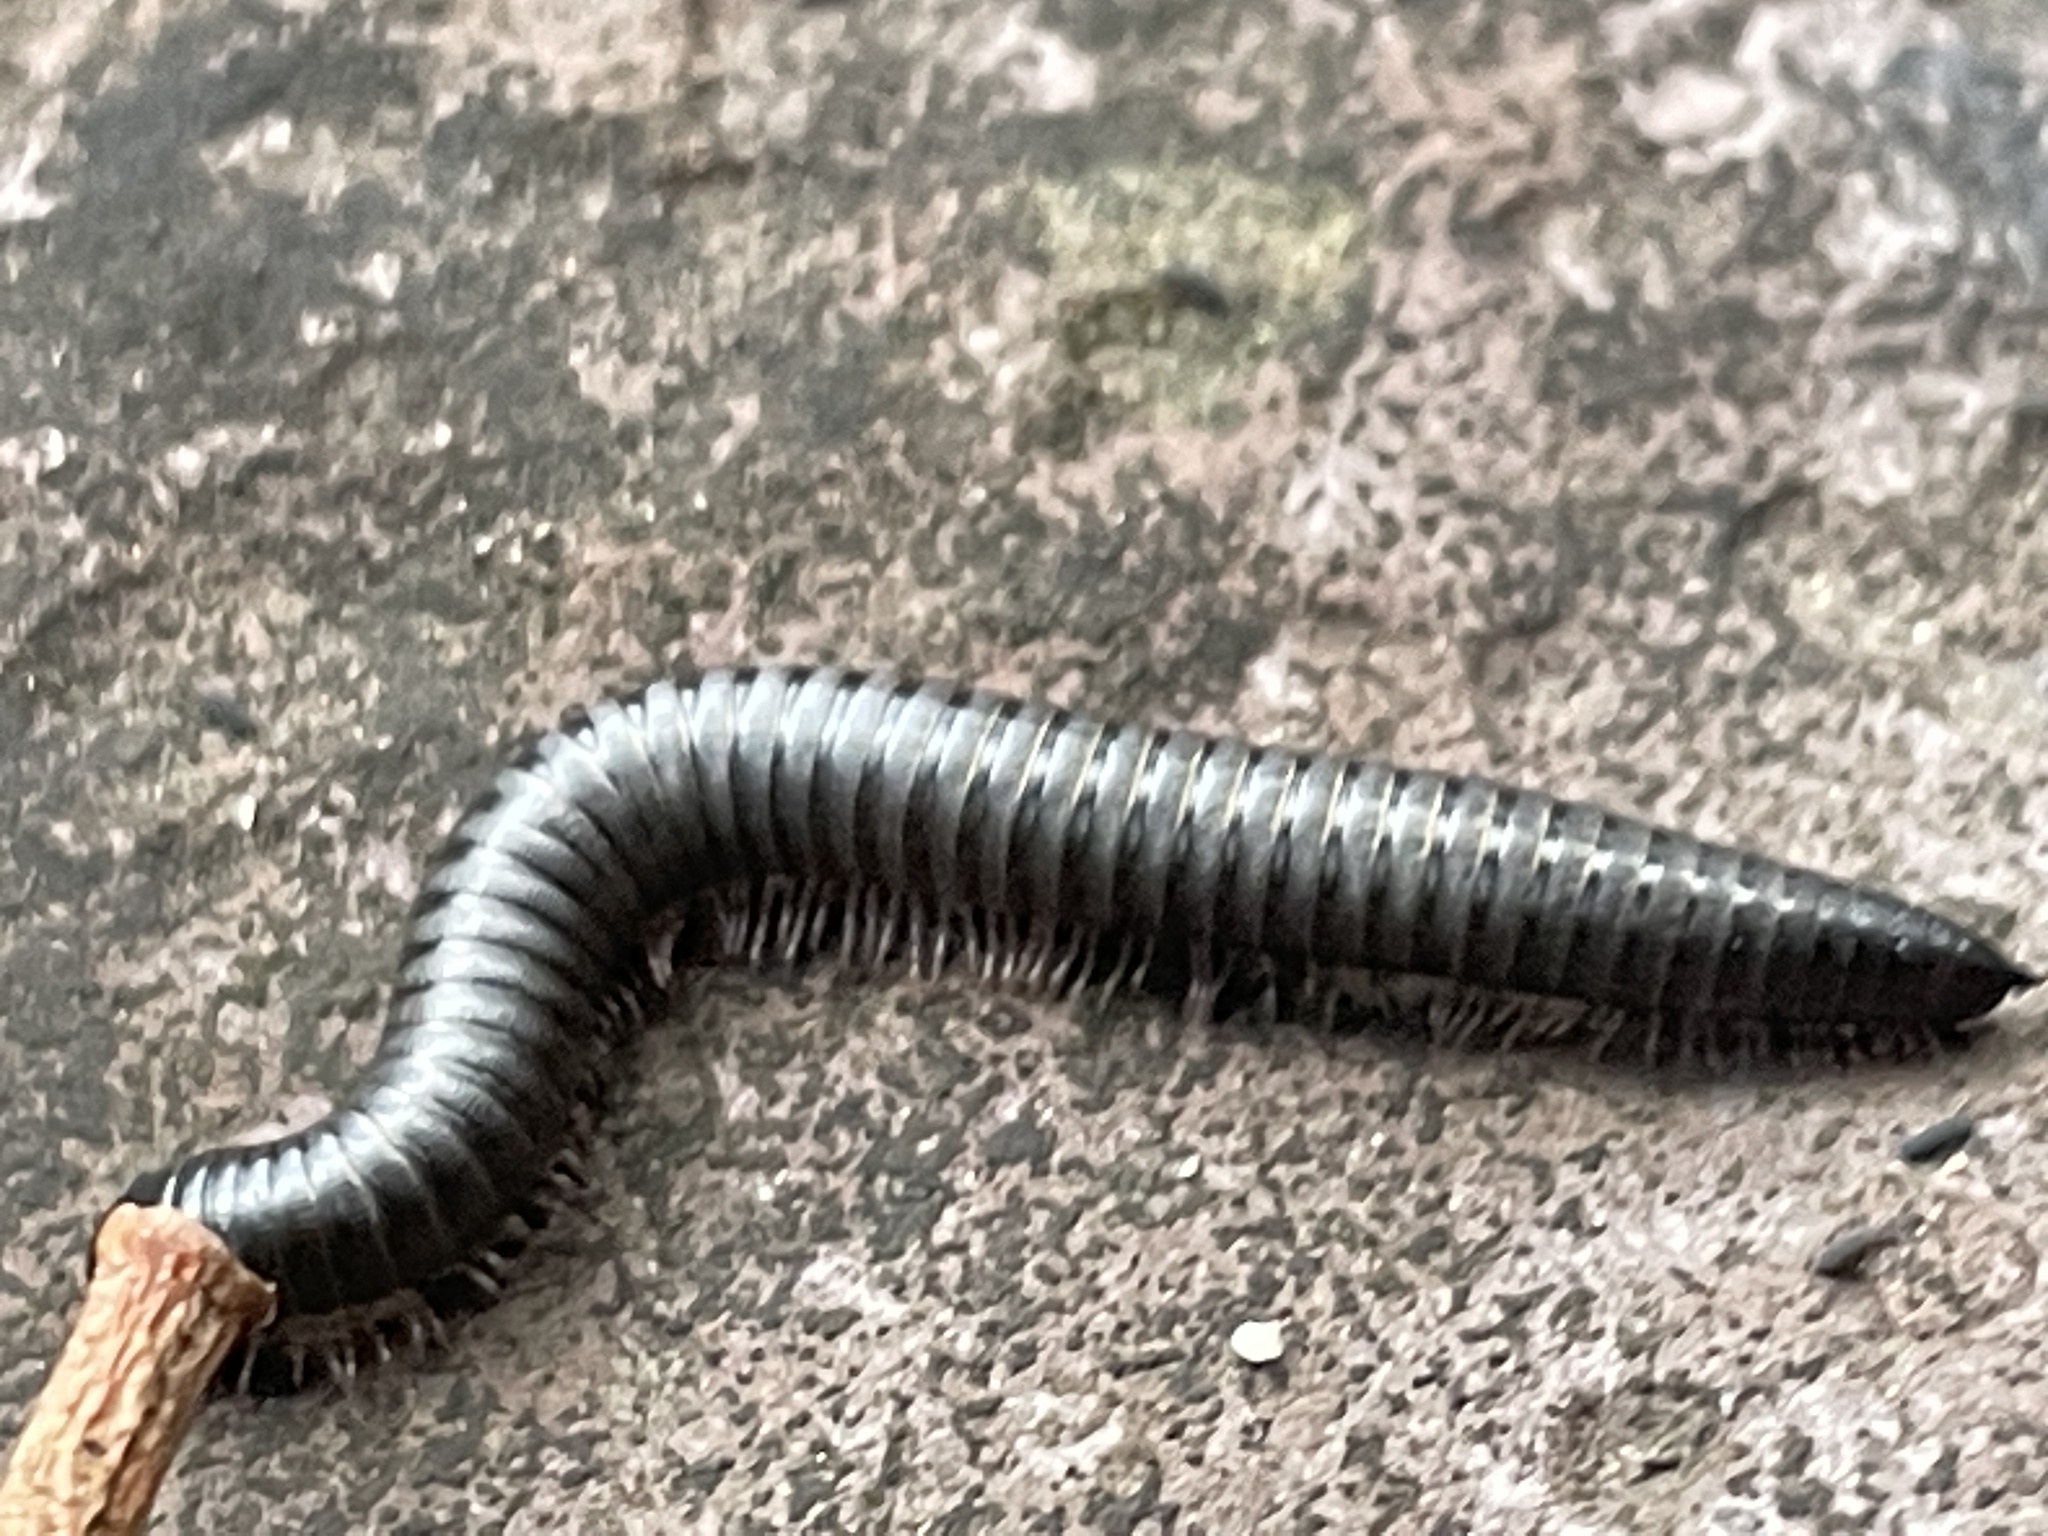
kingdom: Animalia
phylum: Arthropoda
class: Diplopoda
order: Julida
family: Julidae
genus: Ommatoiulus
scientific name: Ommatoiulus moreleti
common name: Portuguese millipede
